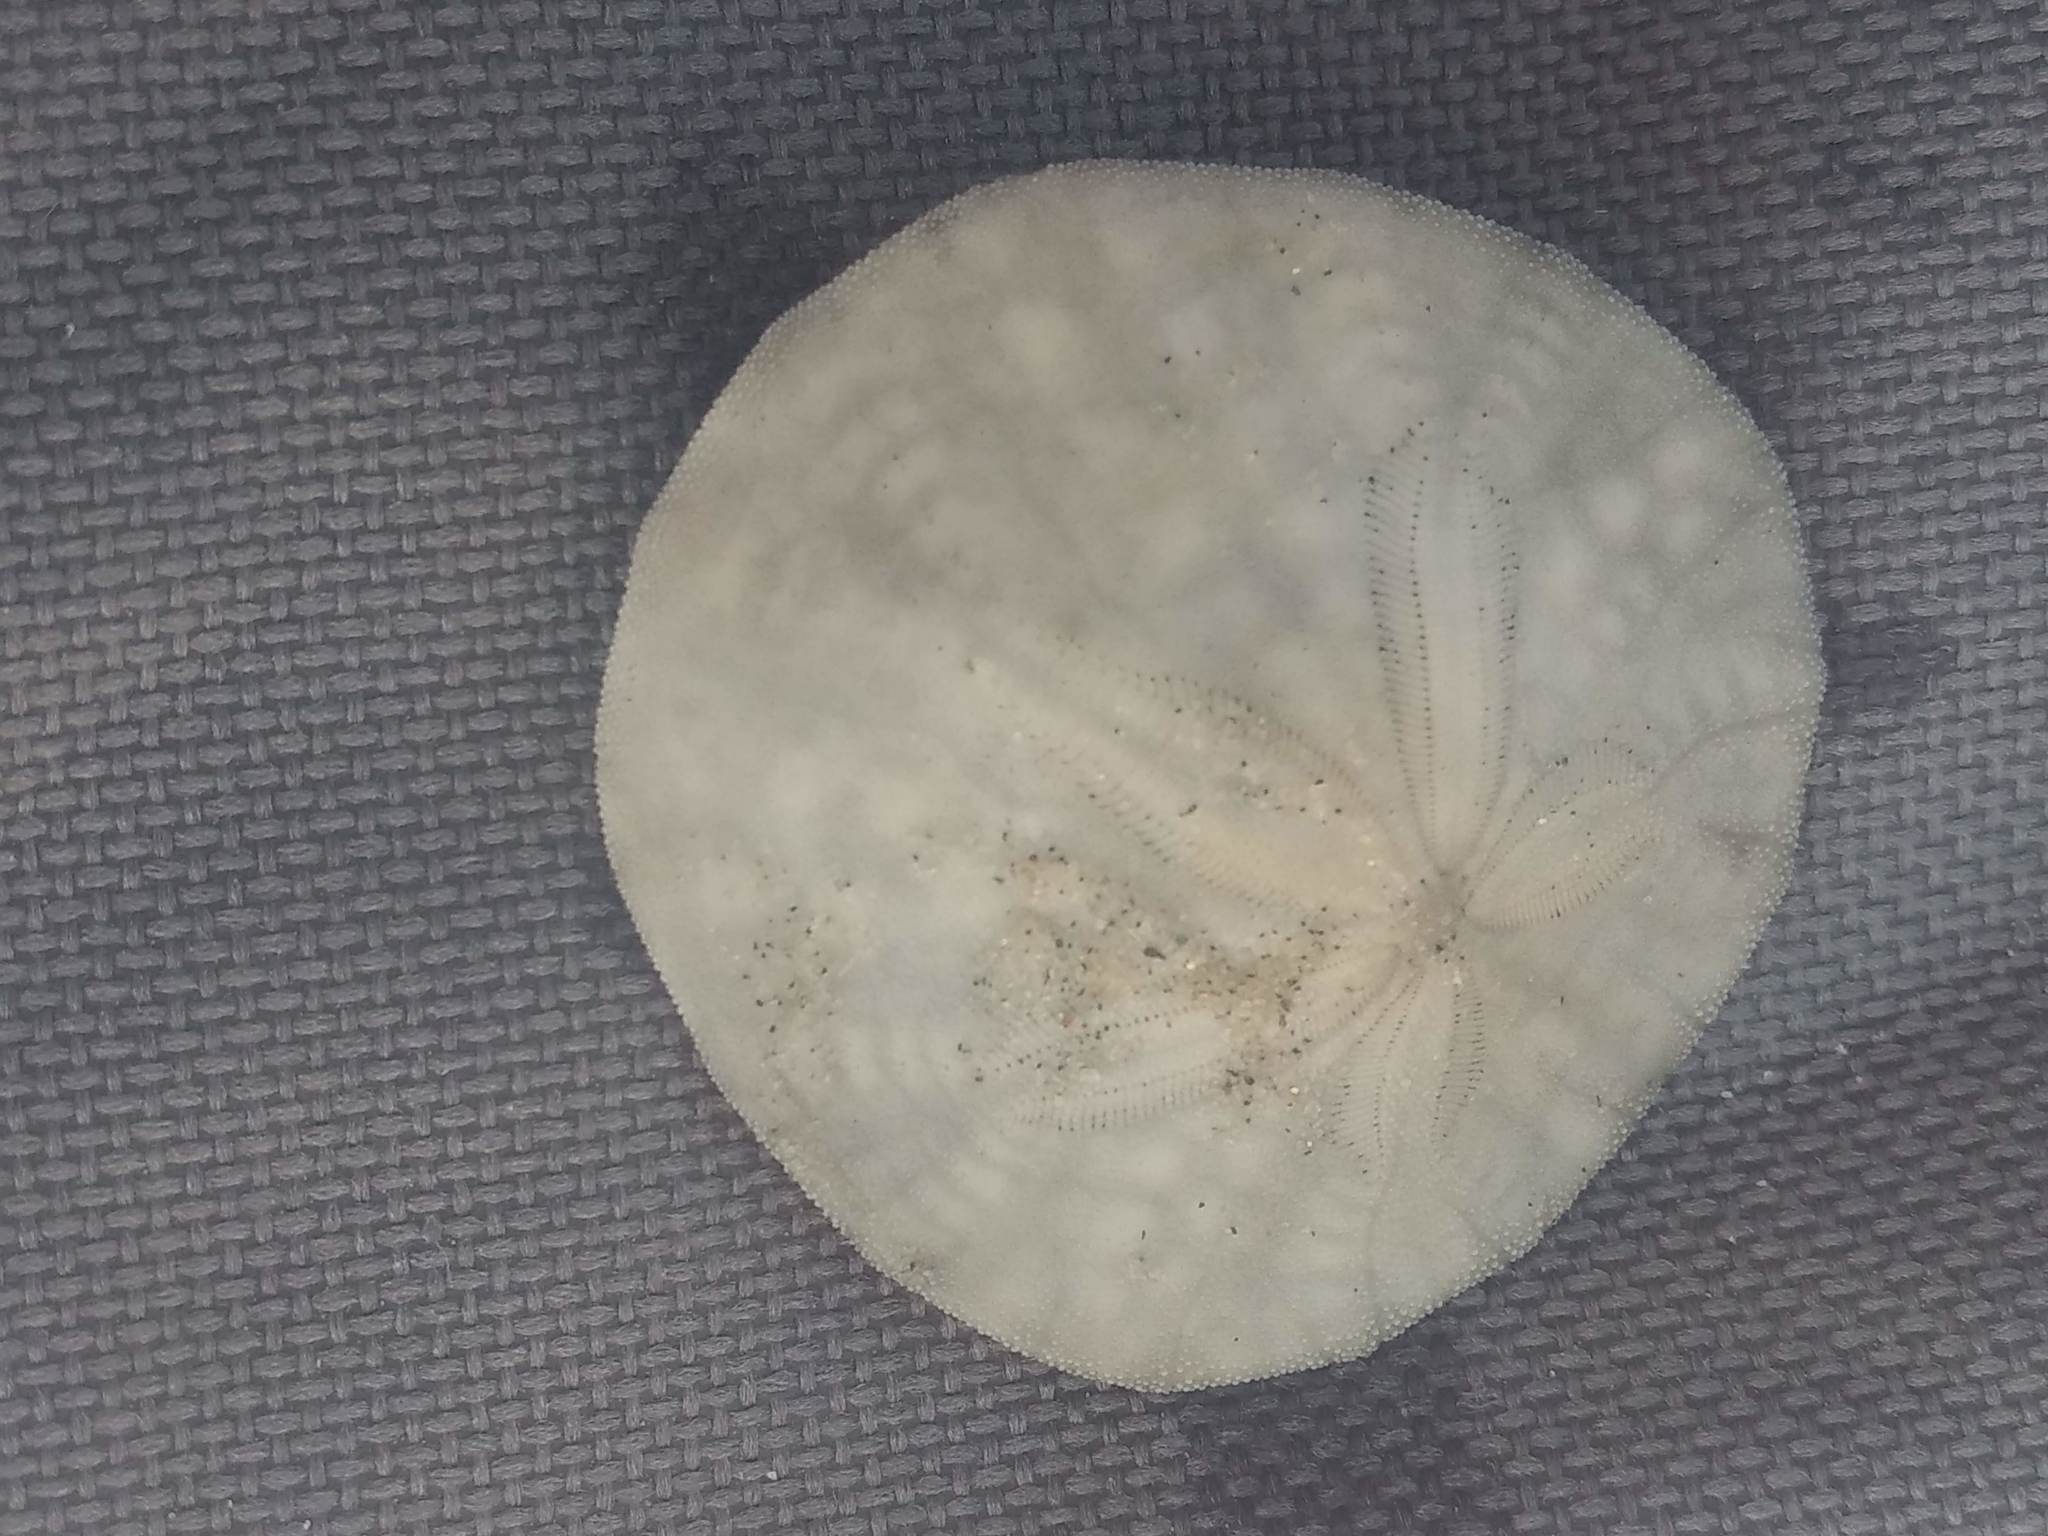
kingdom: Animalia
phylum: Echinodermata
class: Echinoidea
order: Echinolampadacea
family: Dendrasteridae
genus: Dendraster
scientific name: Dendraster excentricus
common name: Eccentric sand dollar sea urchin
